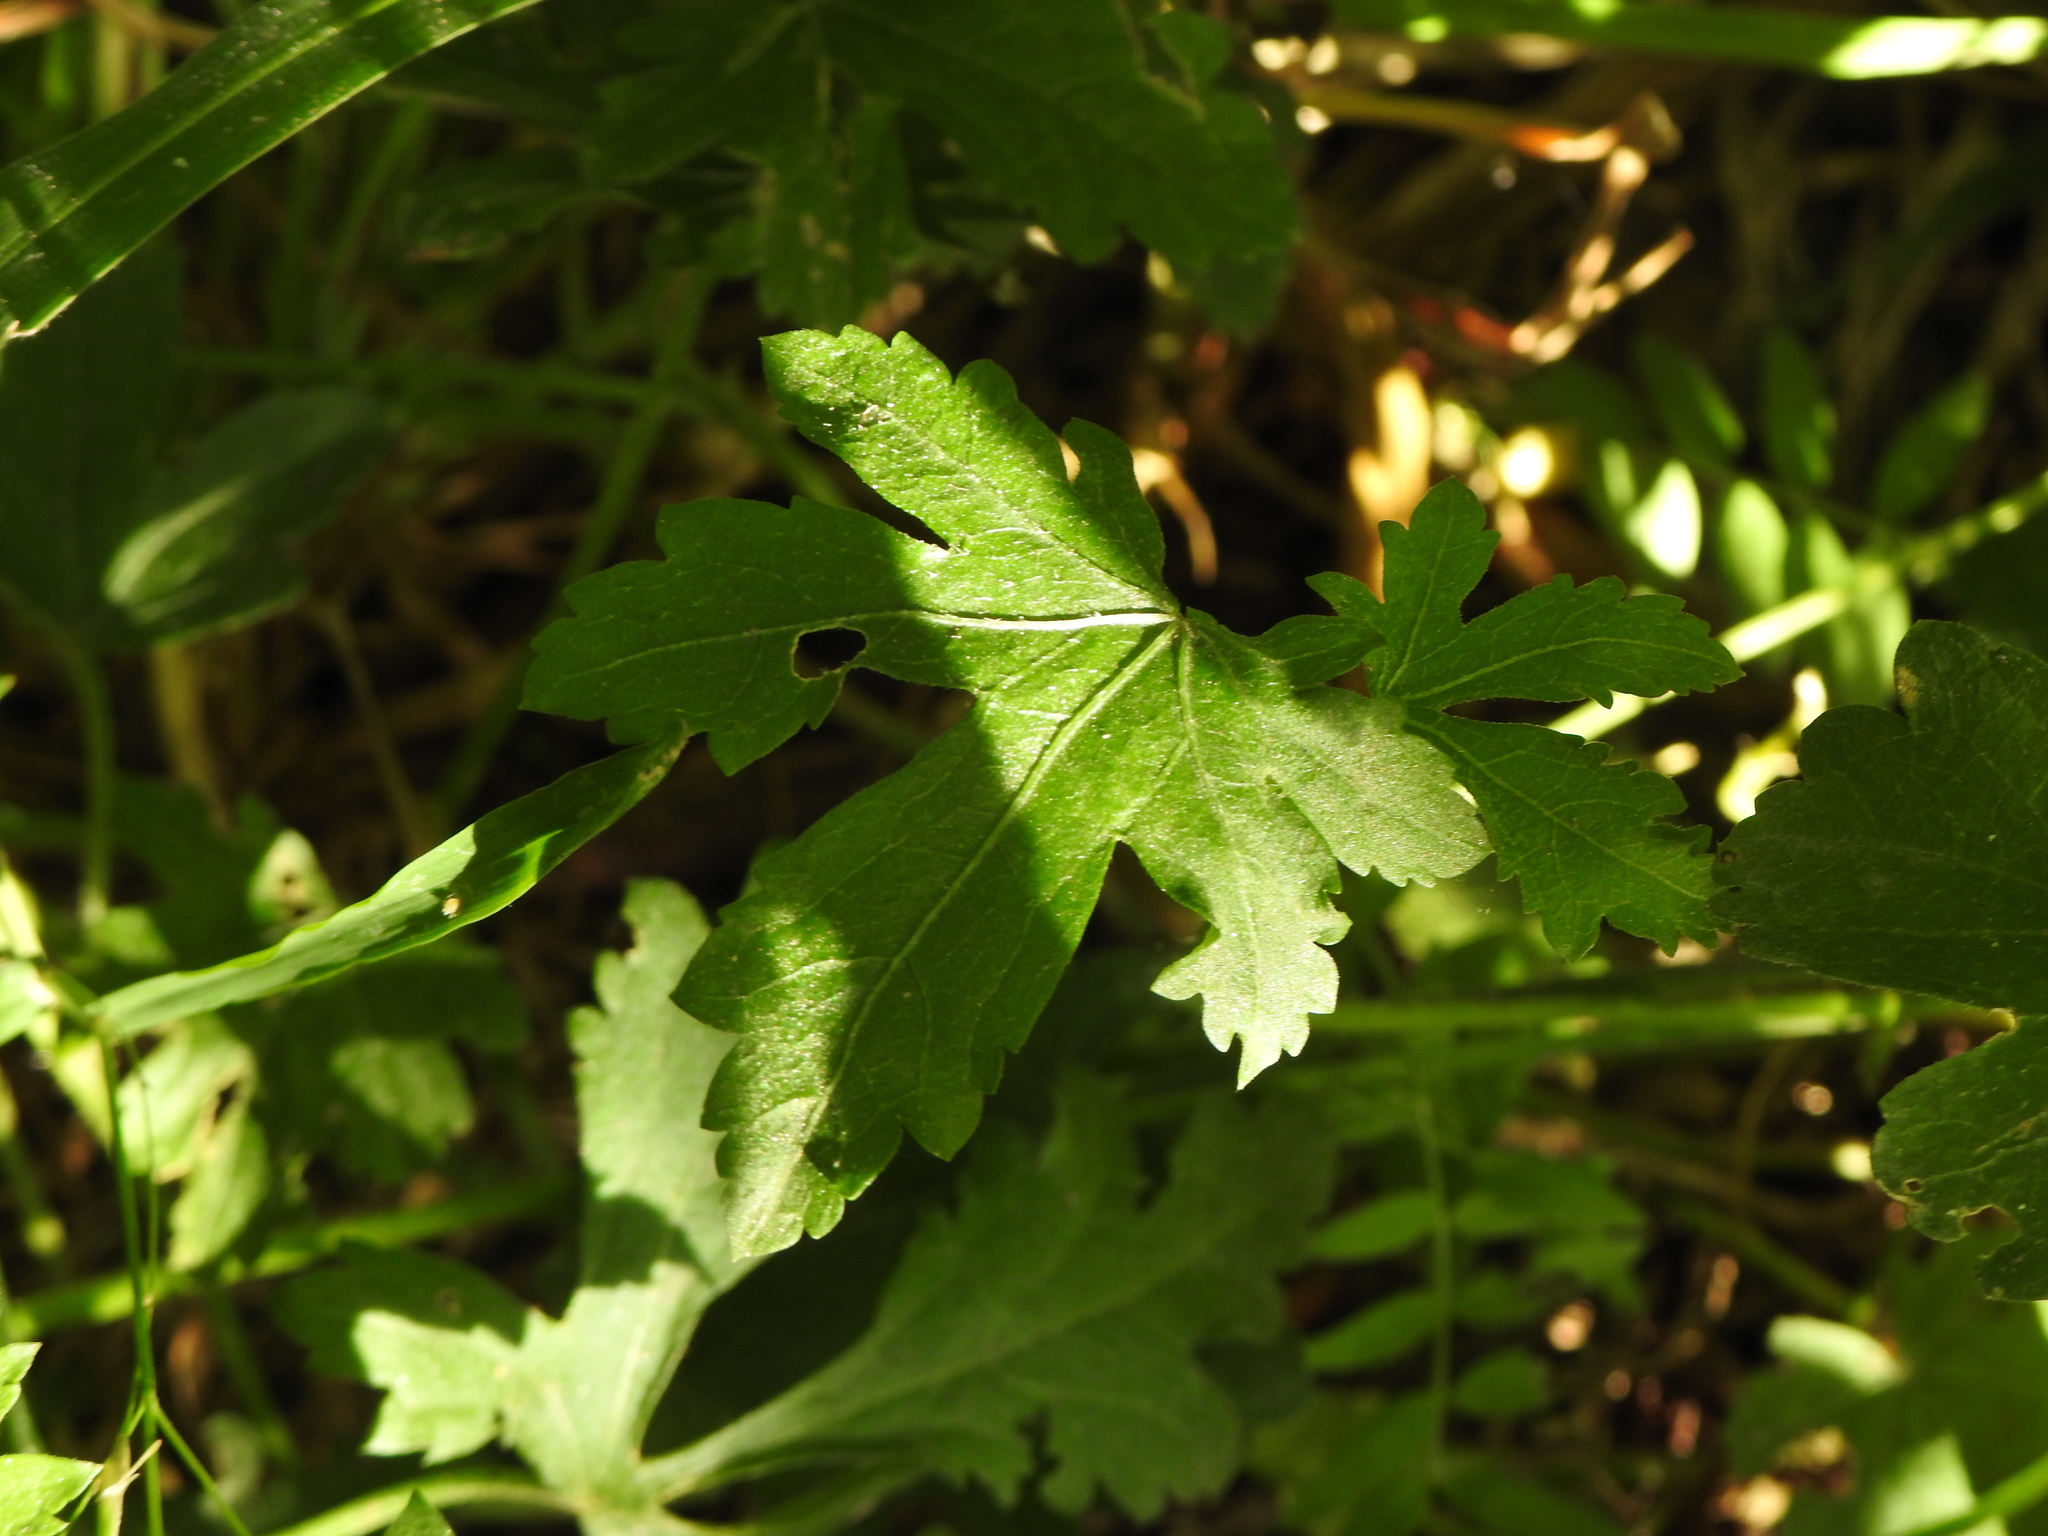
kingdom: Plantae
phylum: Tracheophyta
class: Magnoliopsida
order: Malvales
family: Malvaceae
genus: Modiolastrum
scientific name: Modiolastrum lateritium
